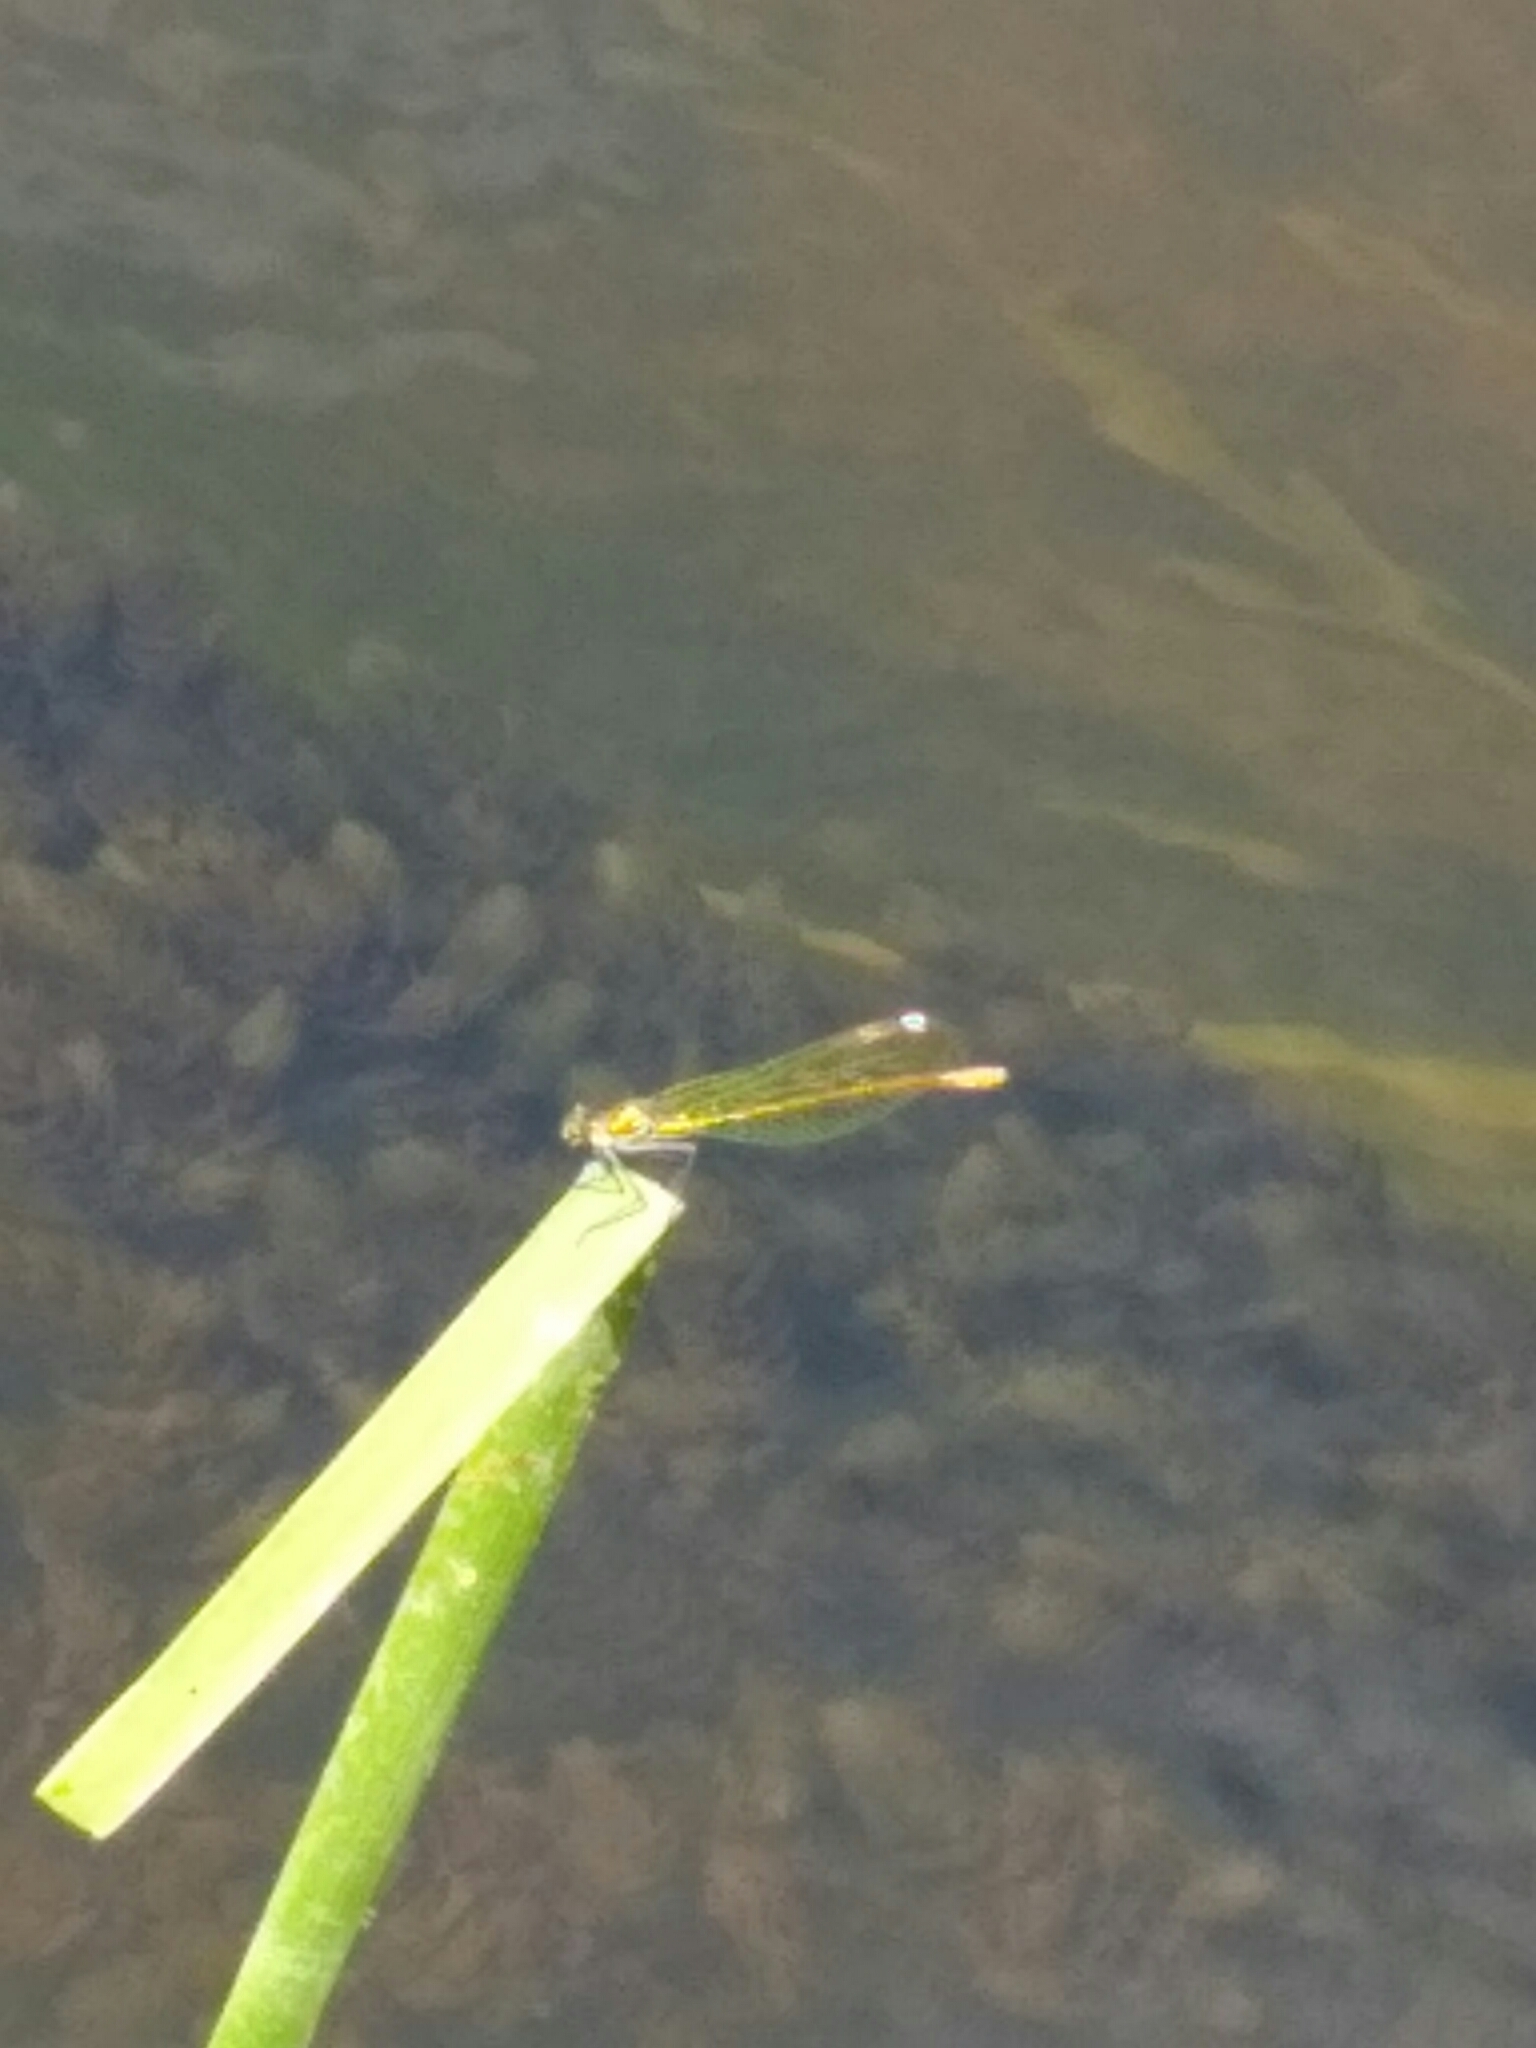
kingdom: Animalia
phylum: Arthropoda
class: Insecta
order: Odonata
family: Calopterygidae
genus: Calopteryx
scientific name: Calopteryx splendens
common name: Banded demoiselle
